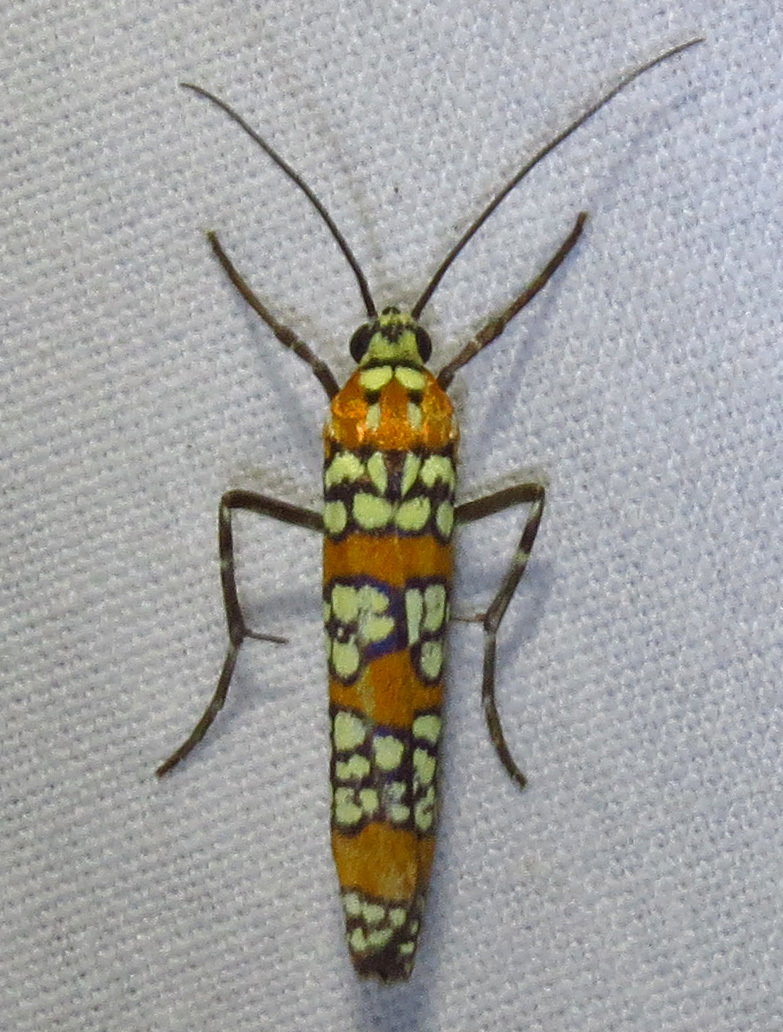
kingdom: Animalia
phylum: Arthropoda
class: Insecta
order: Lepidoptera
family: Attevidae
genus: Atteva
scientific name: Atteva punctella
